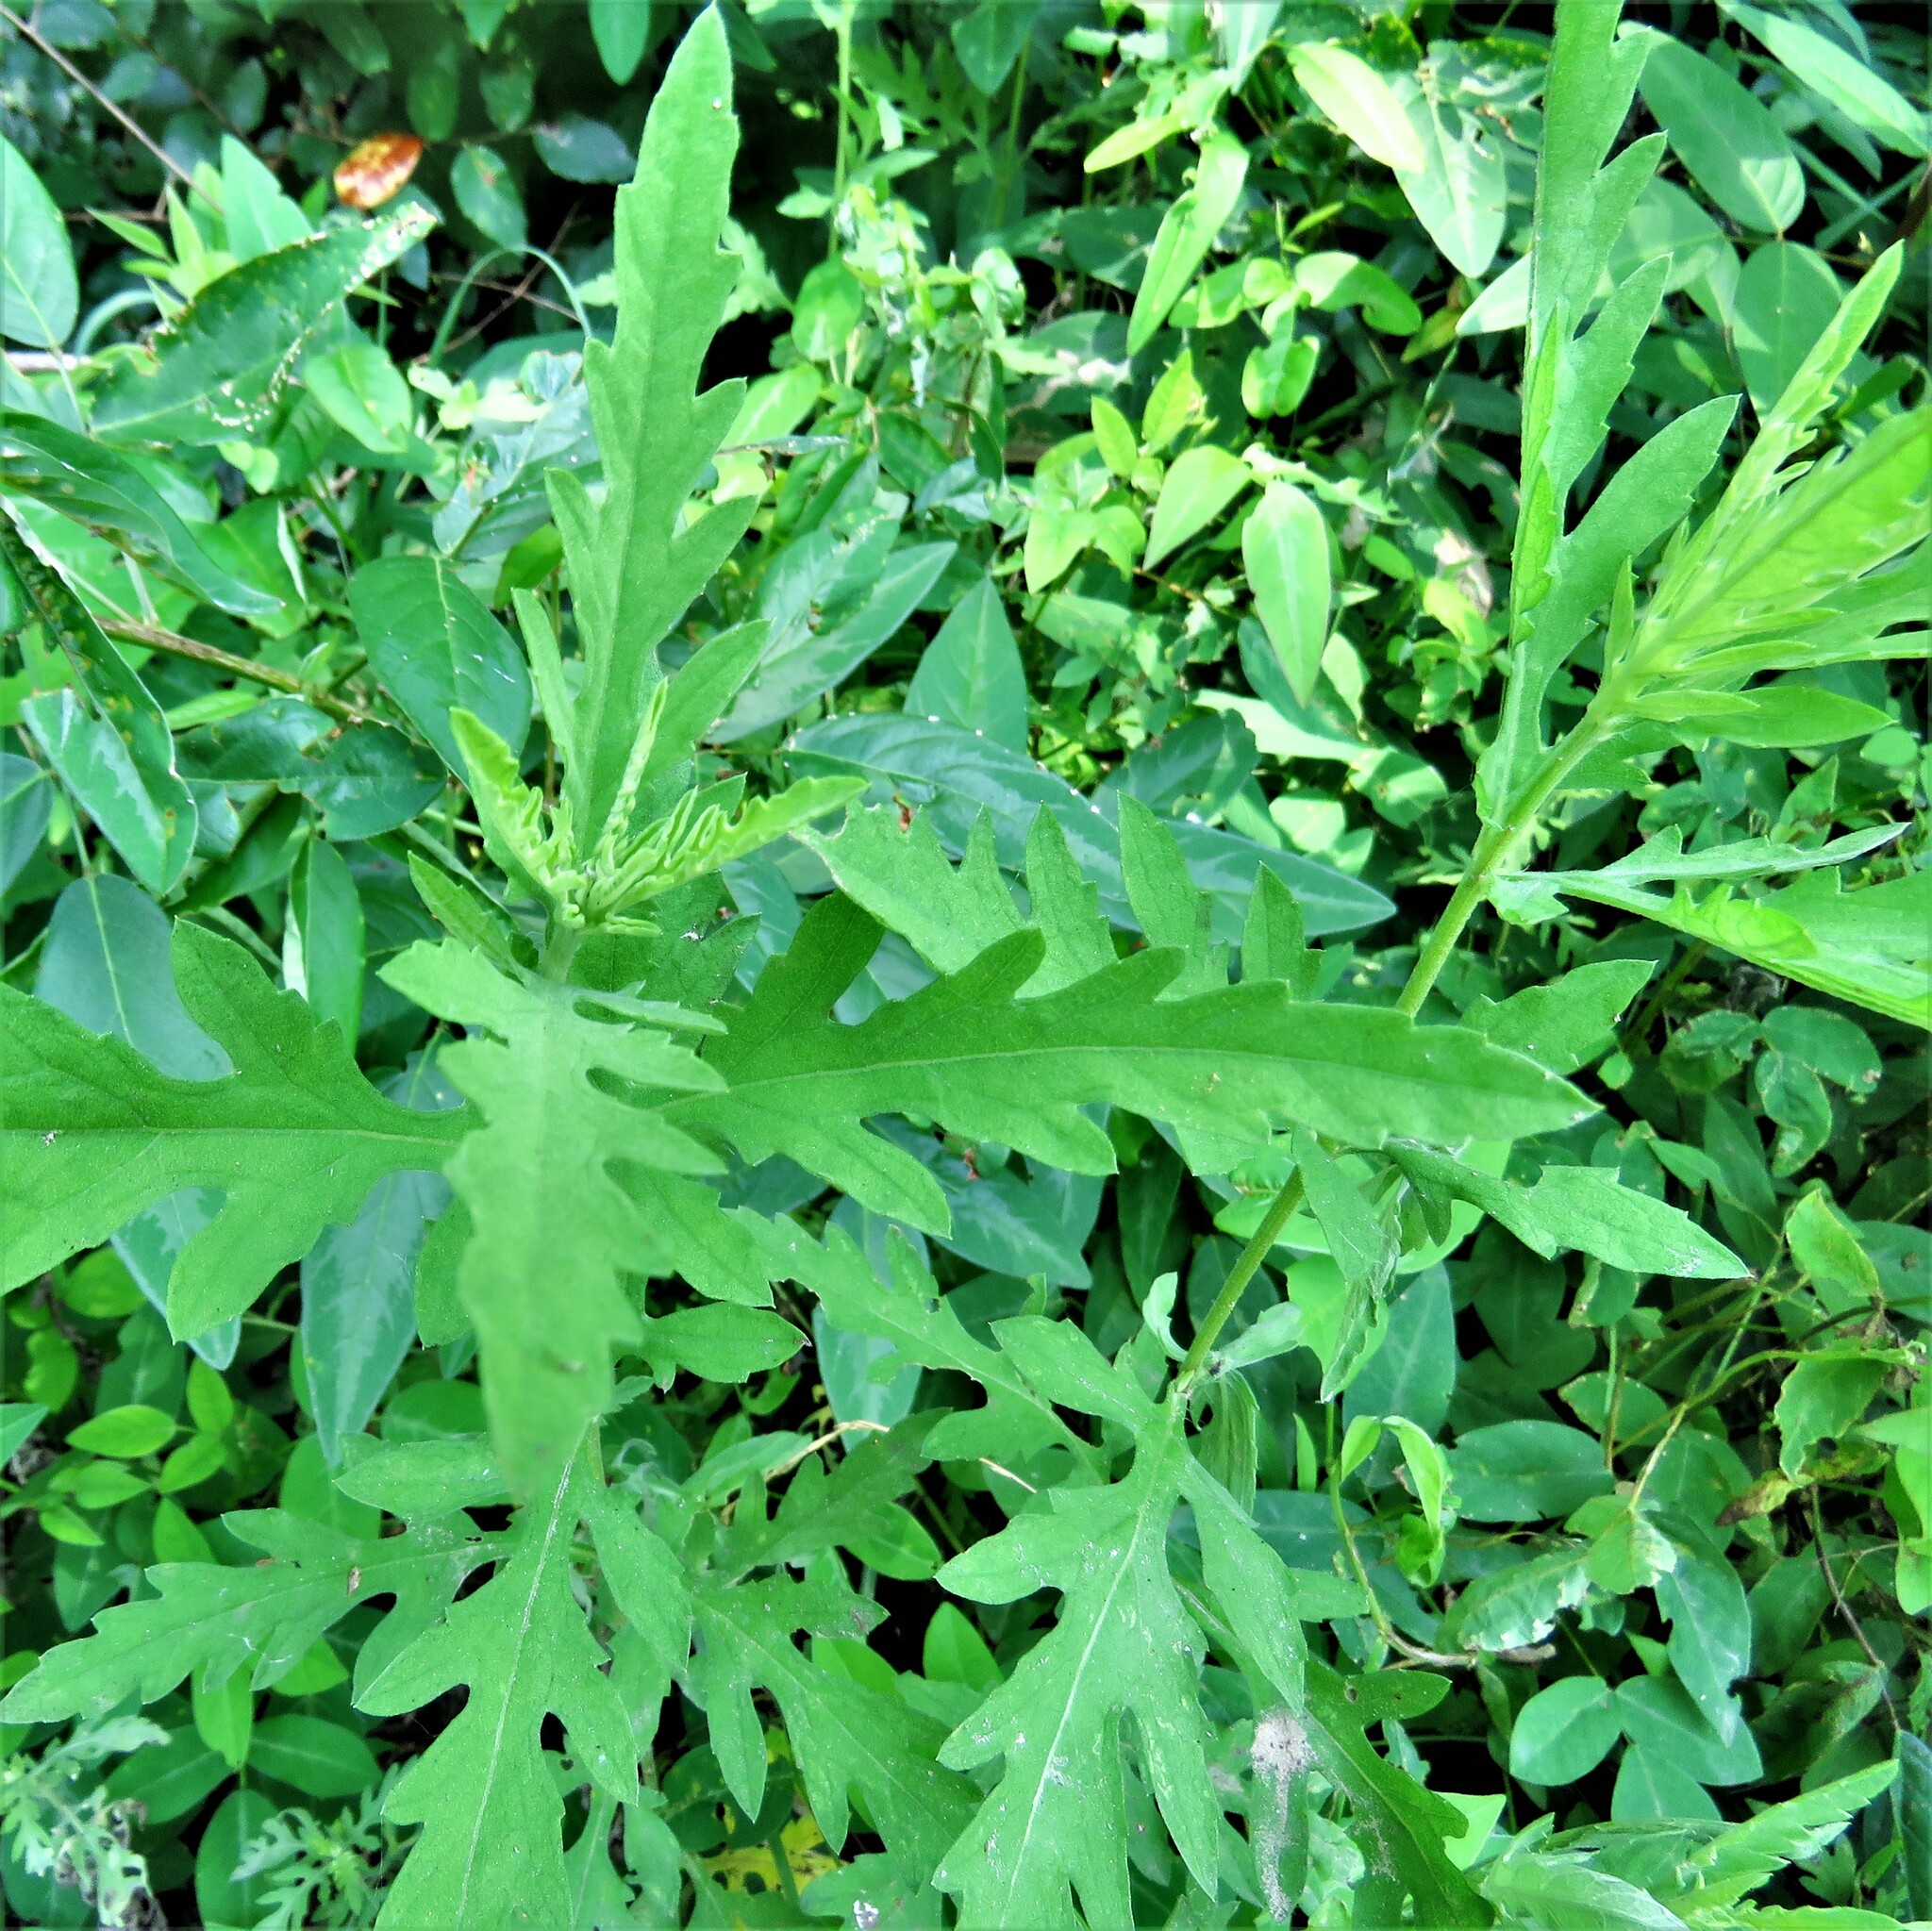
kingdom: Plantae
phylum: Tracheophyta
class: Magnoliopsida
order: Asterales
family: Asteraceae
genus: Ambrosia
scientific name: Ambrosia psilostachya
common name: Perennial ragweed
